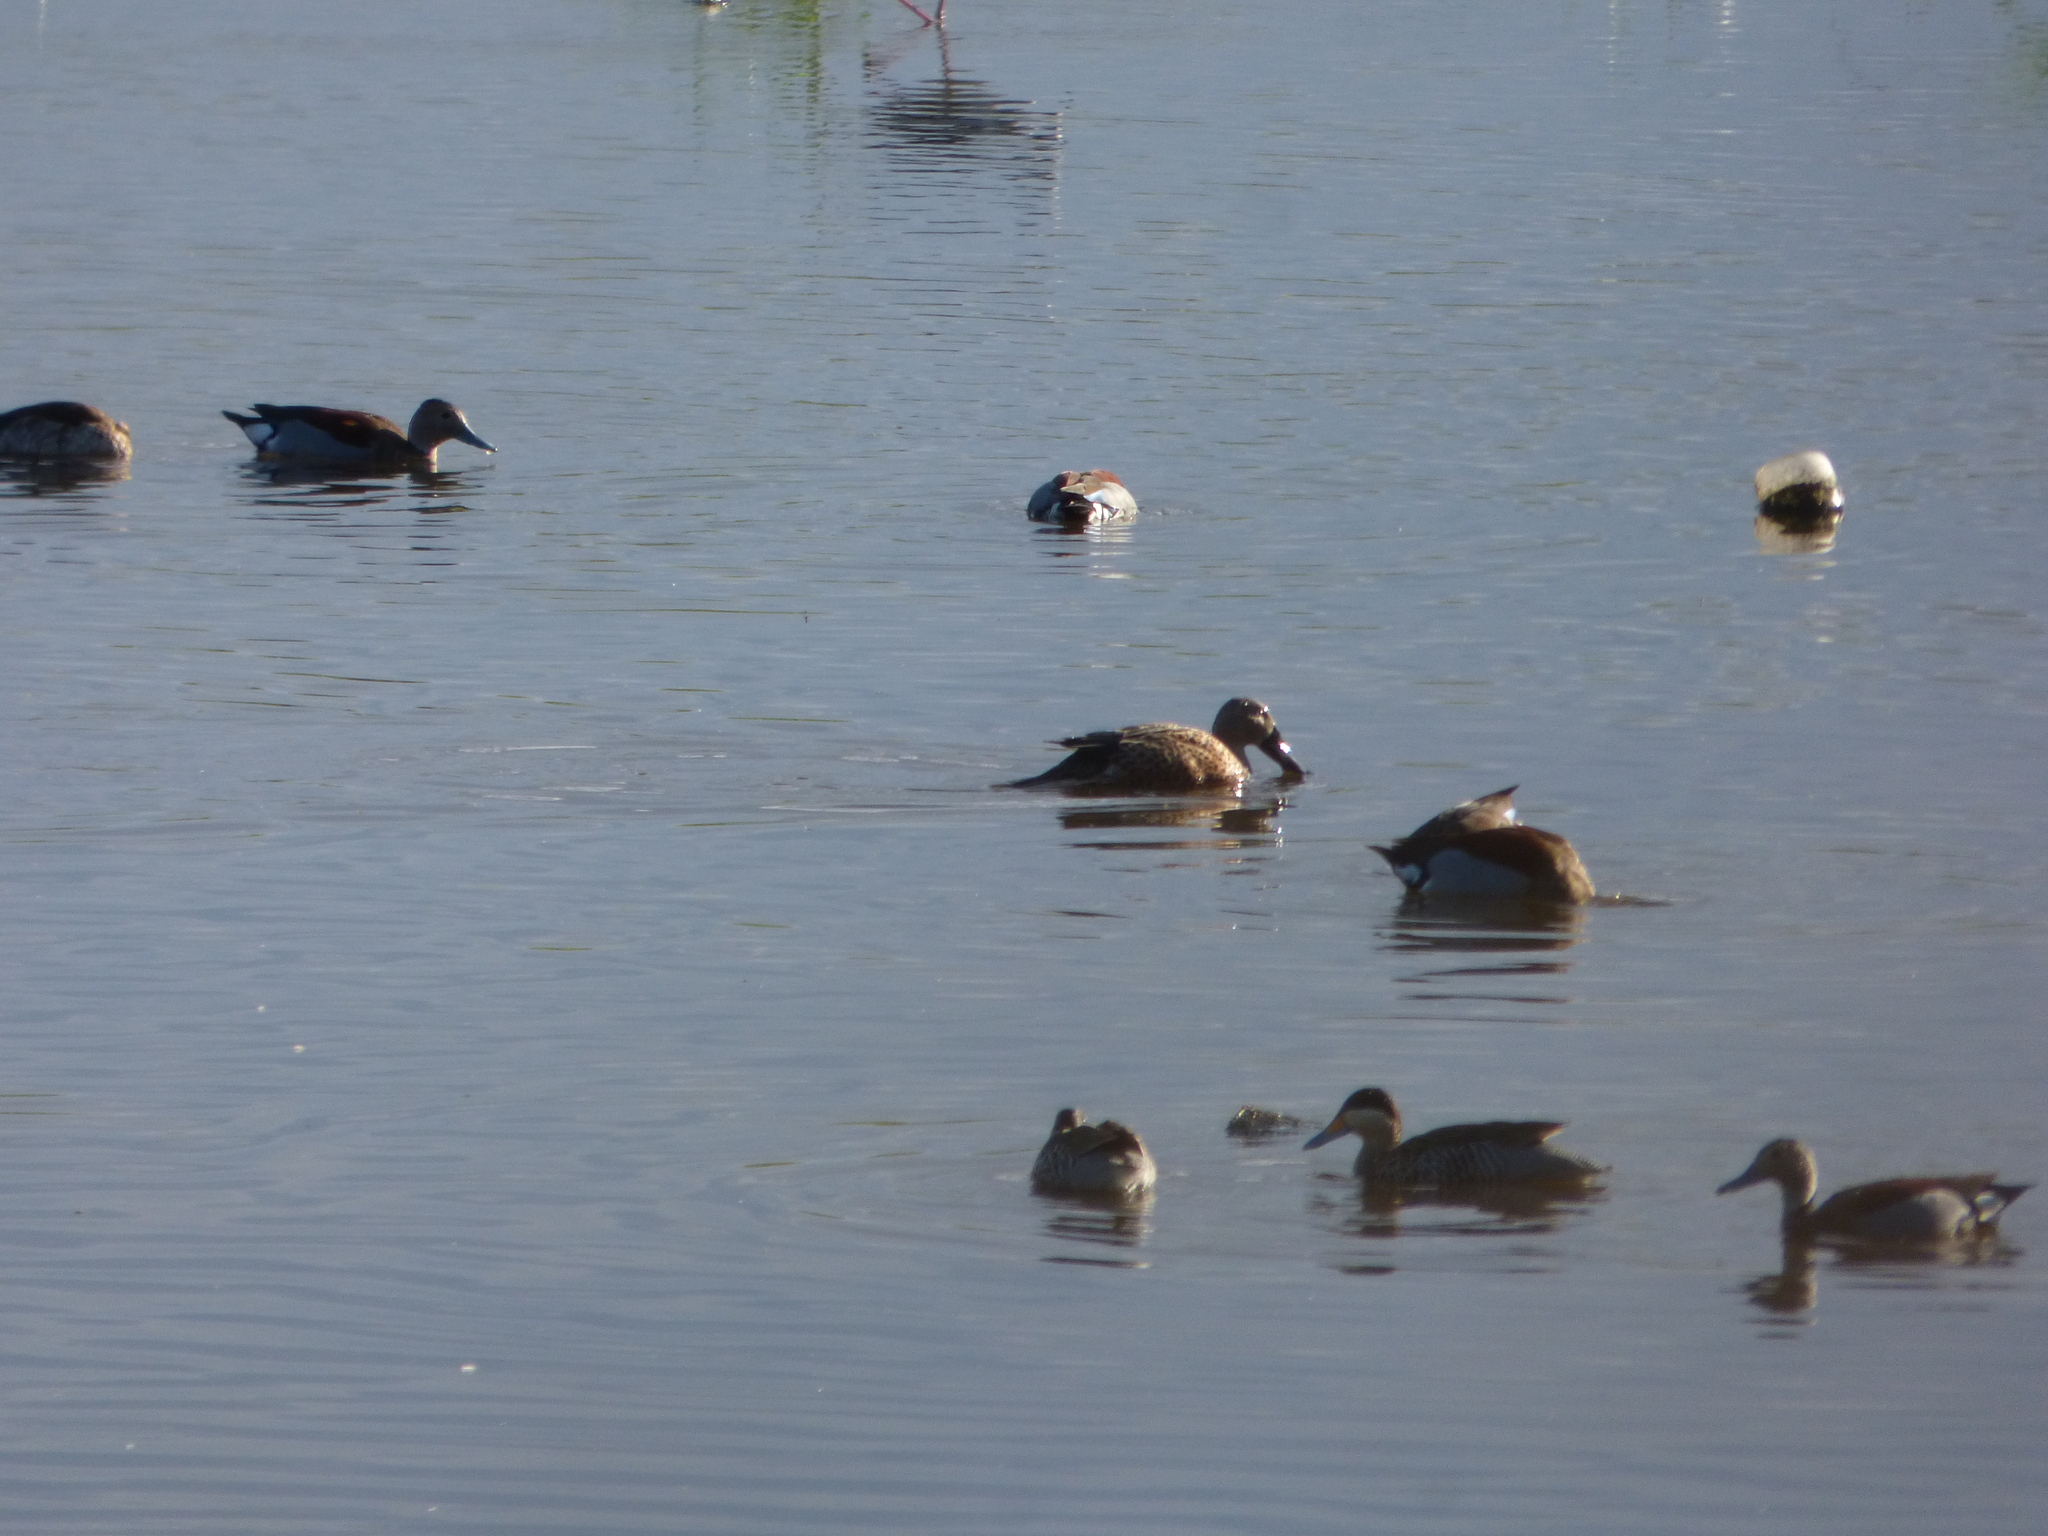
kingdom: Animalia
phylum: Chordata
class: Aves
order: Anseriformes
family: Anatidae
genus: Spatula
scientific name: Spatula platalea
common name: Red shoveler
